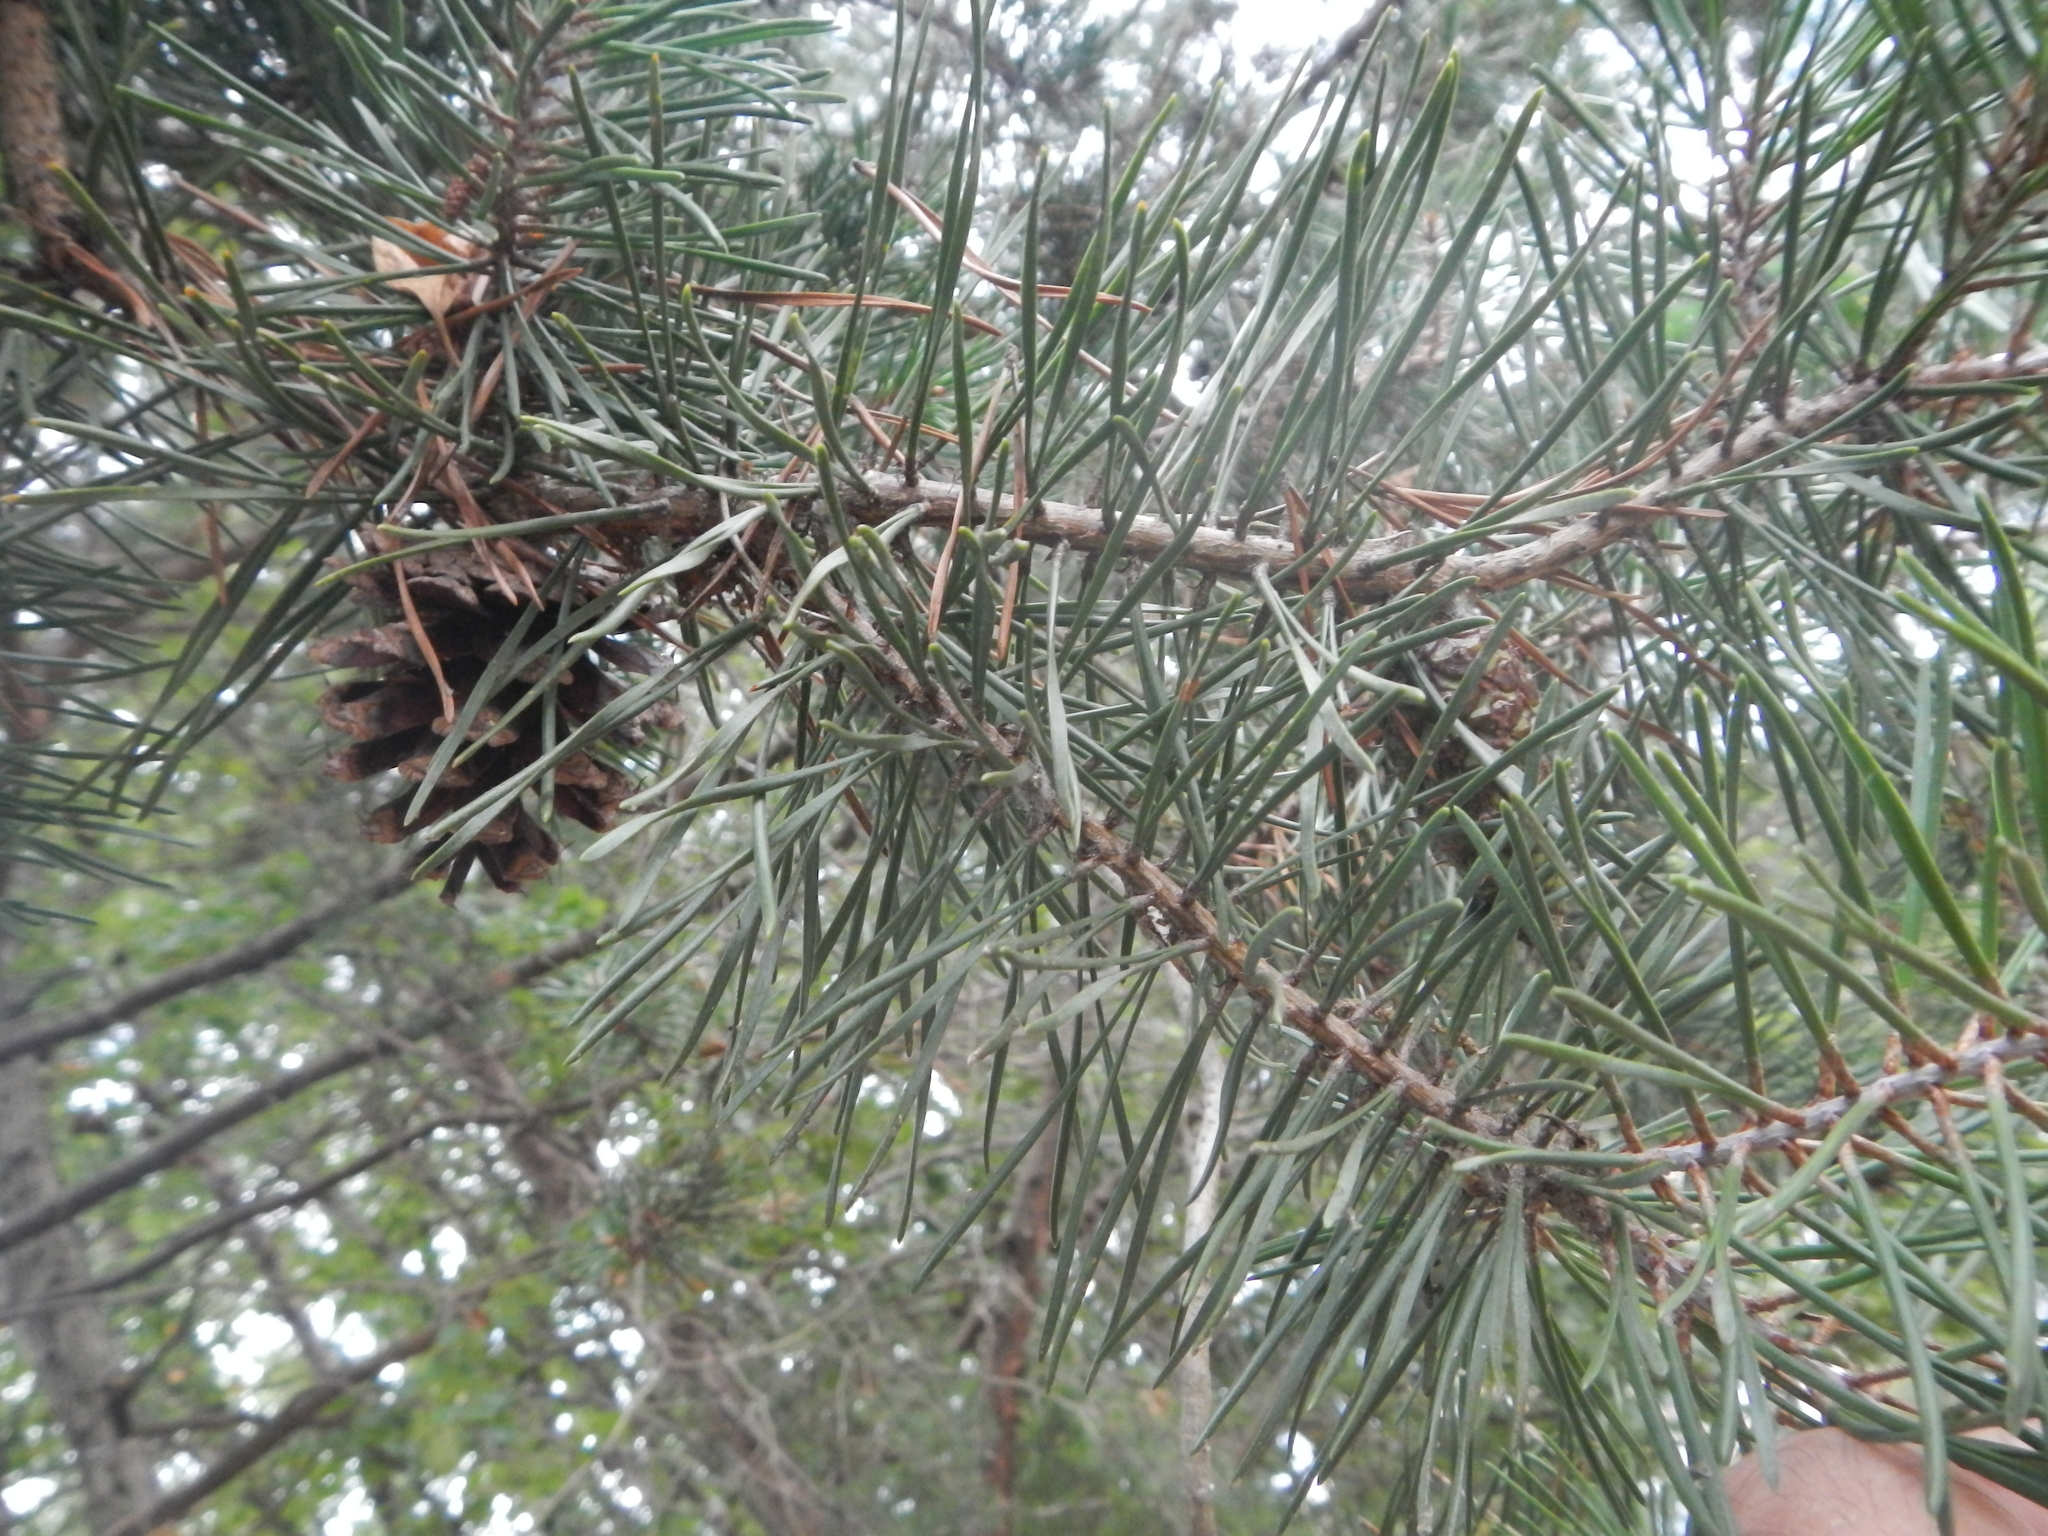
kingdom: Plantae
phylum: Tracheophyta
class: Pinopsida
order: Pinales
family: Pinaceae
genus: Pinus
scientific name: Pinus virginiana
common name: Scrub pine
